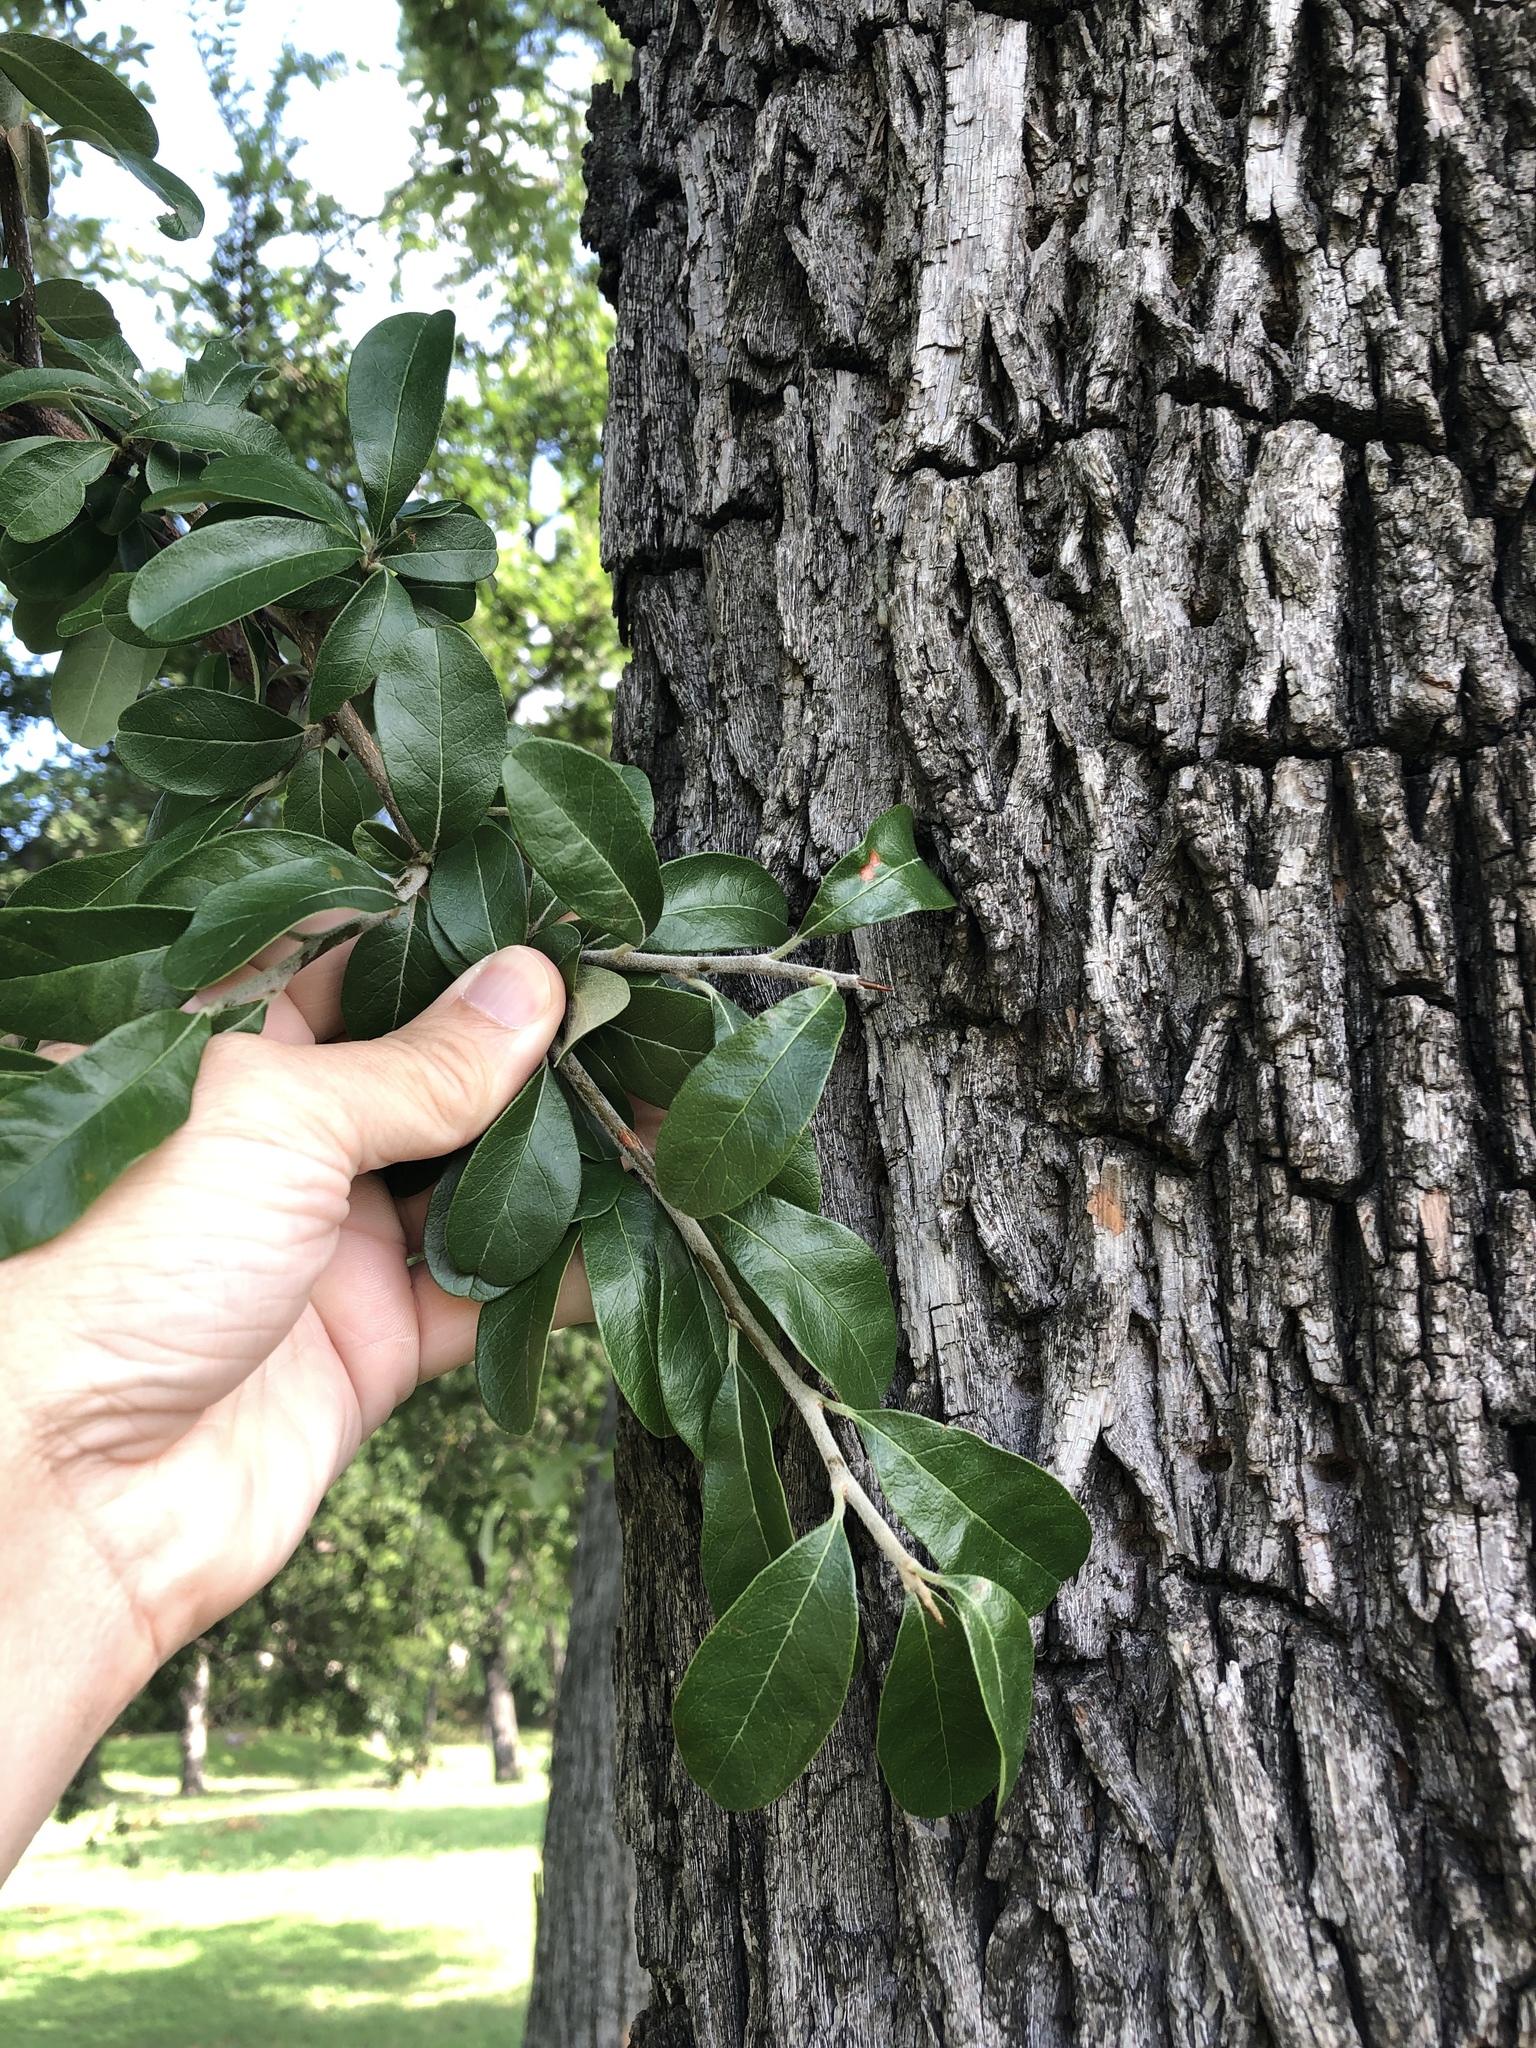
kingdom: Plantae
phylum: Tracheophyta
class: Magnoliopsida
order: Ericales
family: Sapotaceae
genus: Sideroxylon
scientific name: Sideroxylon lanuginosum
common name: Chittamwood
